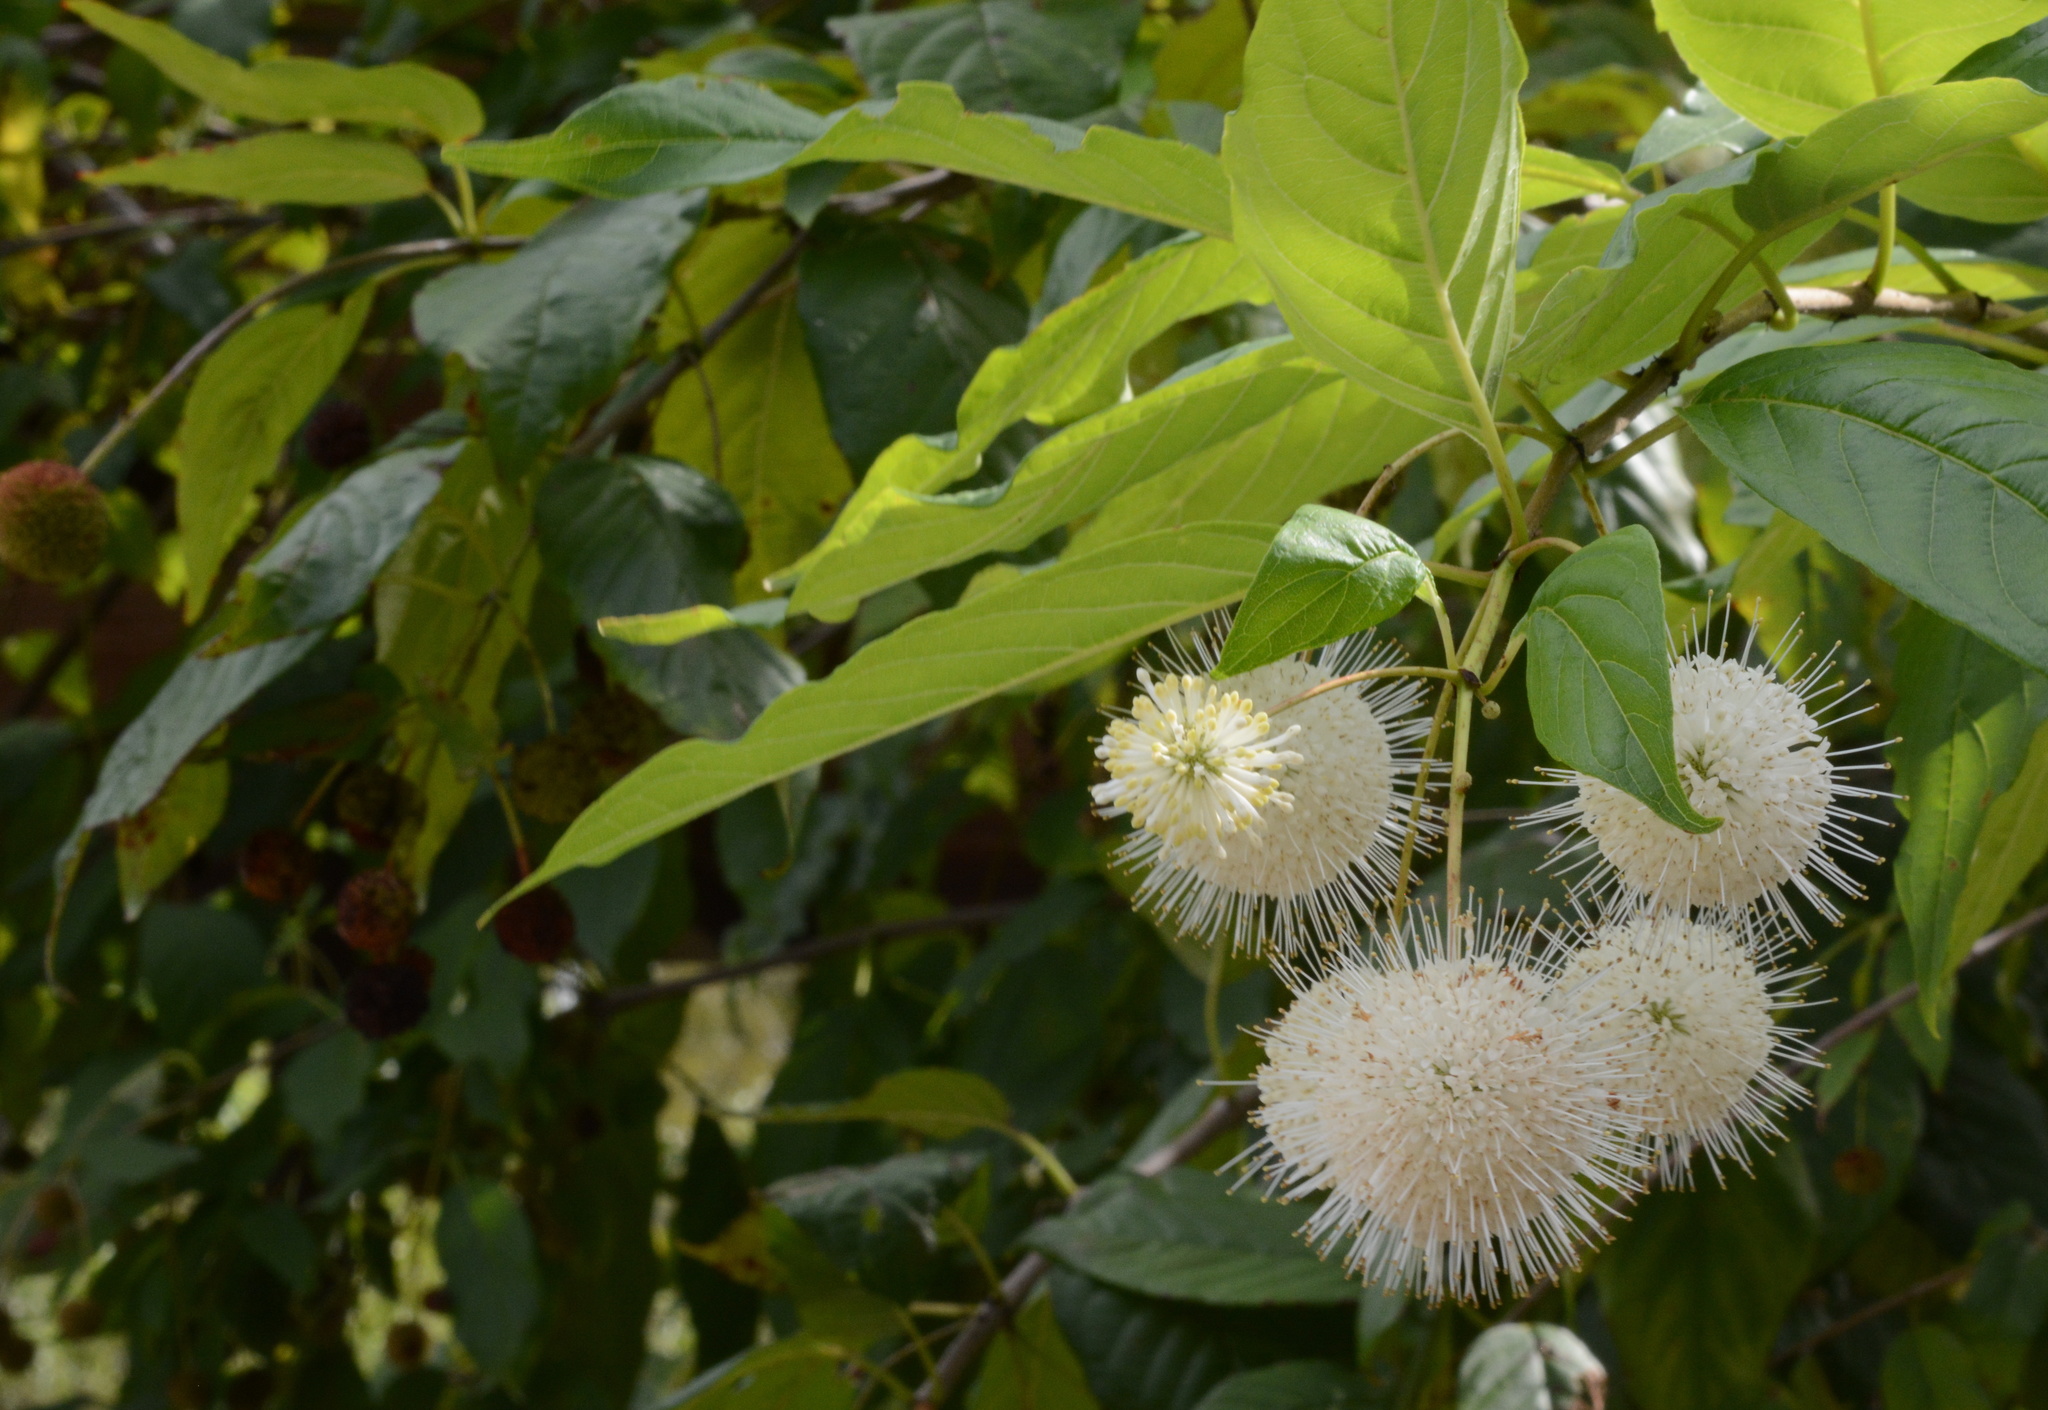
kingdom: Plantae
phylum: Tracheophyta
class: Magnoliopsida
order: Gentianales
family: Rubiaceae
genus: Cephalanthus
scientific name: Cephalanthus occidentalis
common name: Button-willow
